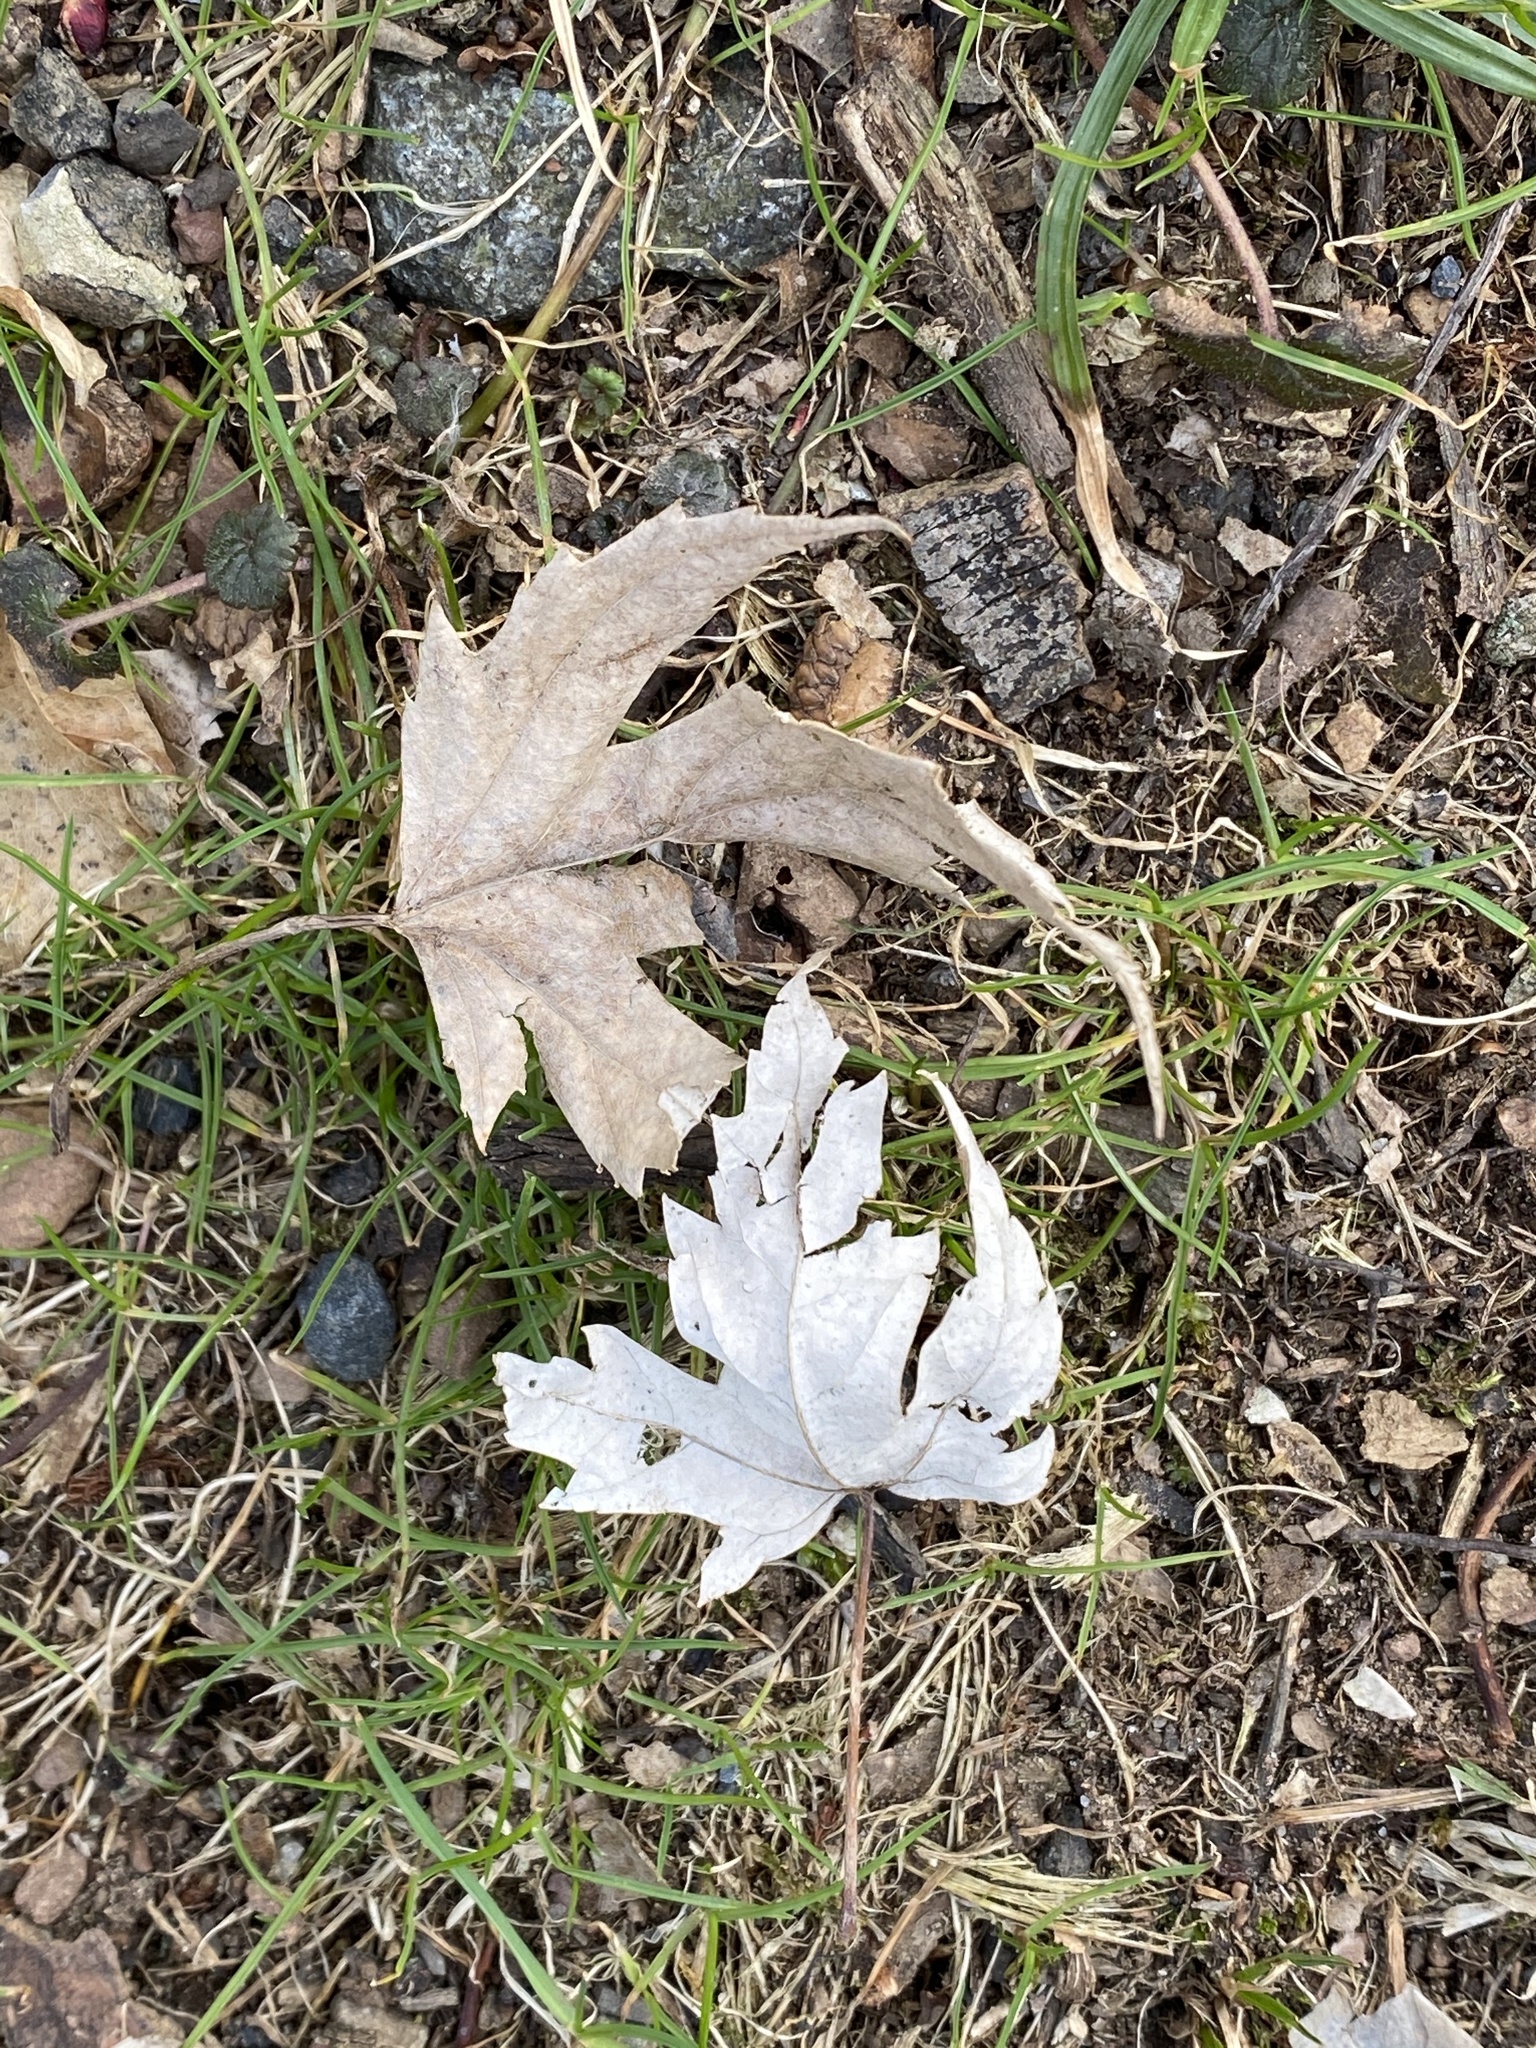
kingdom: Plantae
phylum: Tracheophyta
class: Magnoliopsida
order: Sapindales
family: Sapindaceae
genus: Acer
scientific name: Acer saccharinum
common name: Silver maple
